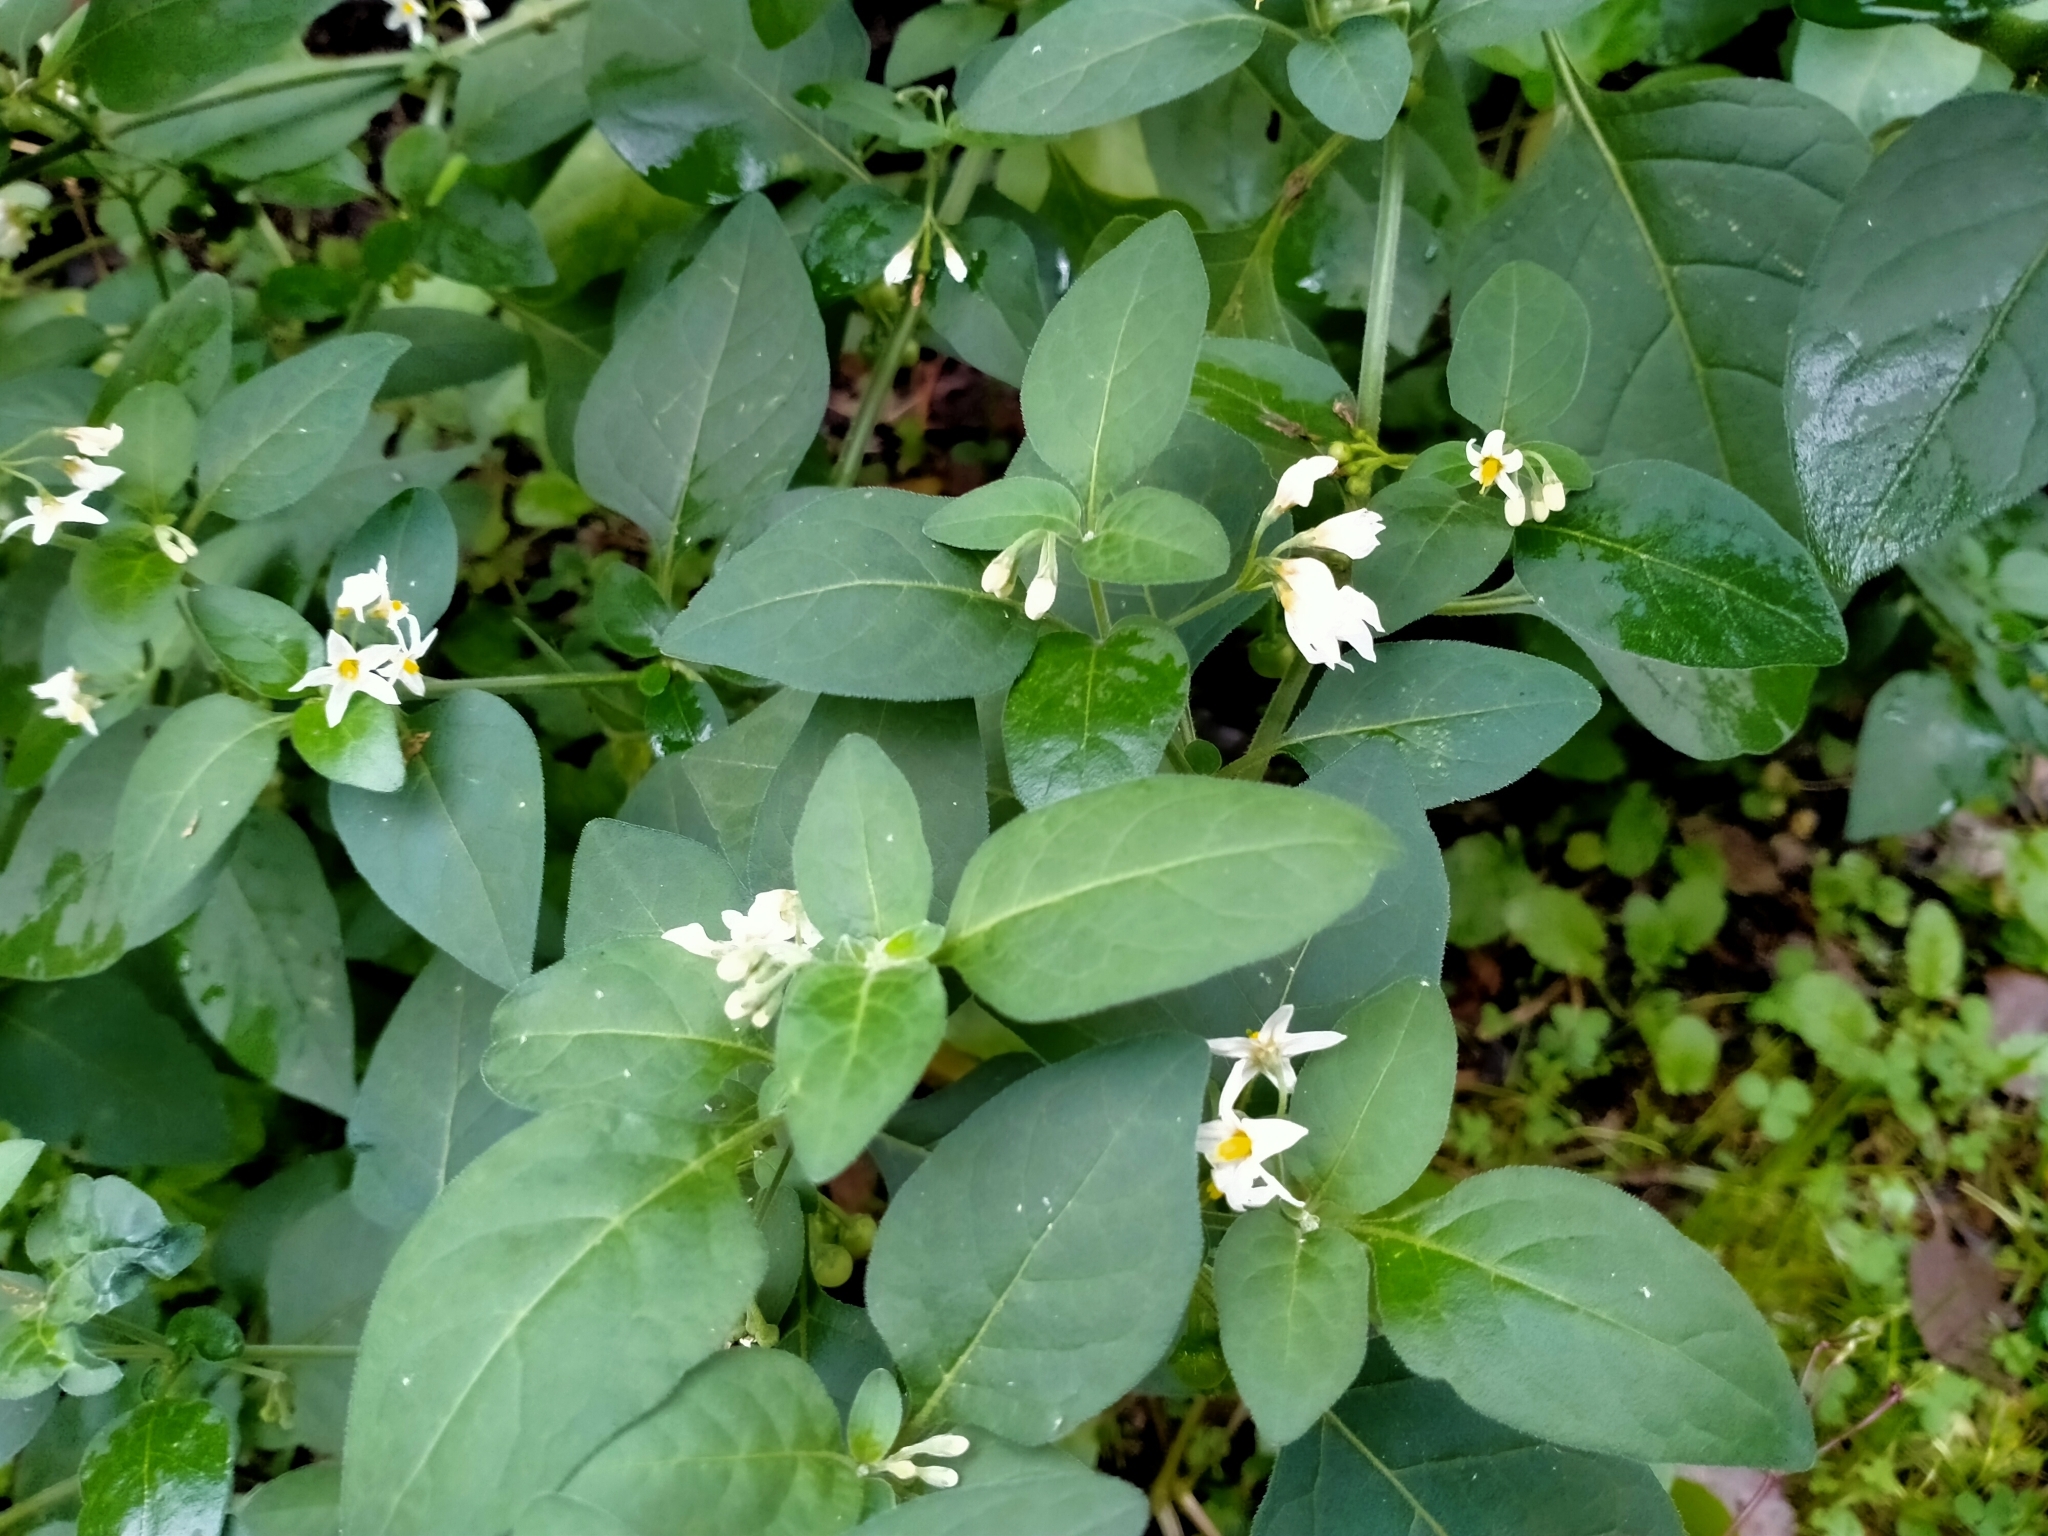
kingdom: Plantae
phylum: Tracheophyta
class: Magnoliopsida
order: Solanales
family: Solanaceae
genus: Solanum
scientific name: Solanum chenopodioides
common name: Tall nightshade
